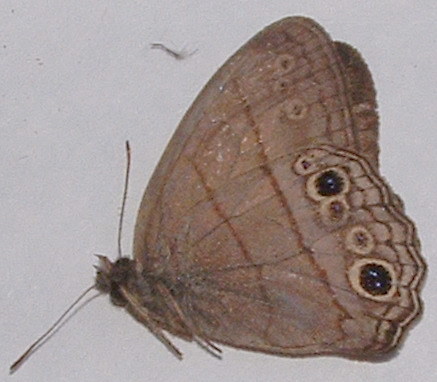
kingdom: Animalia
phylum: Arthropoda
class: Insecta
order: Lepidoptera
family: Nymphalidae
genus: Vareuptychia
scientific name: Vareuptychia similis
